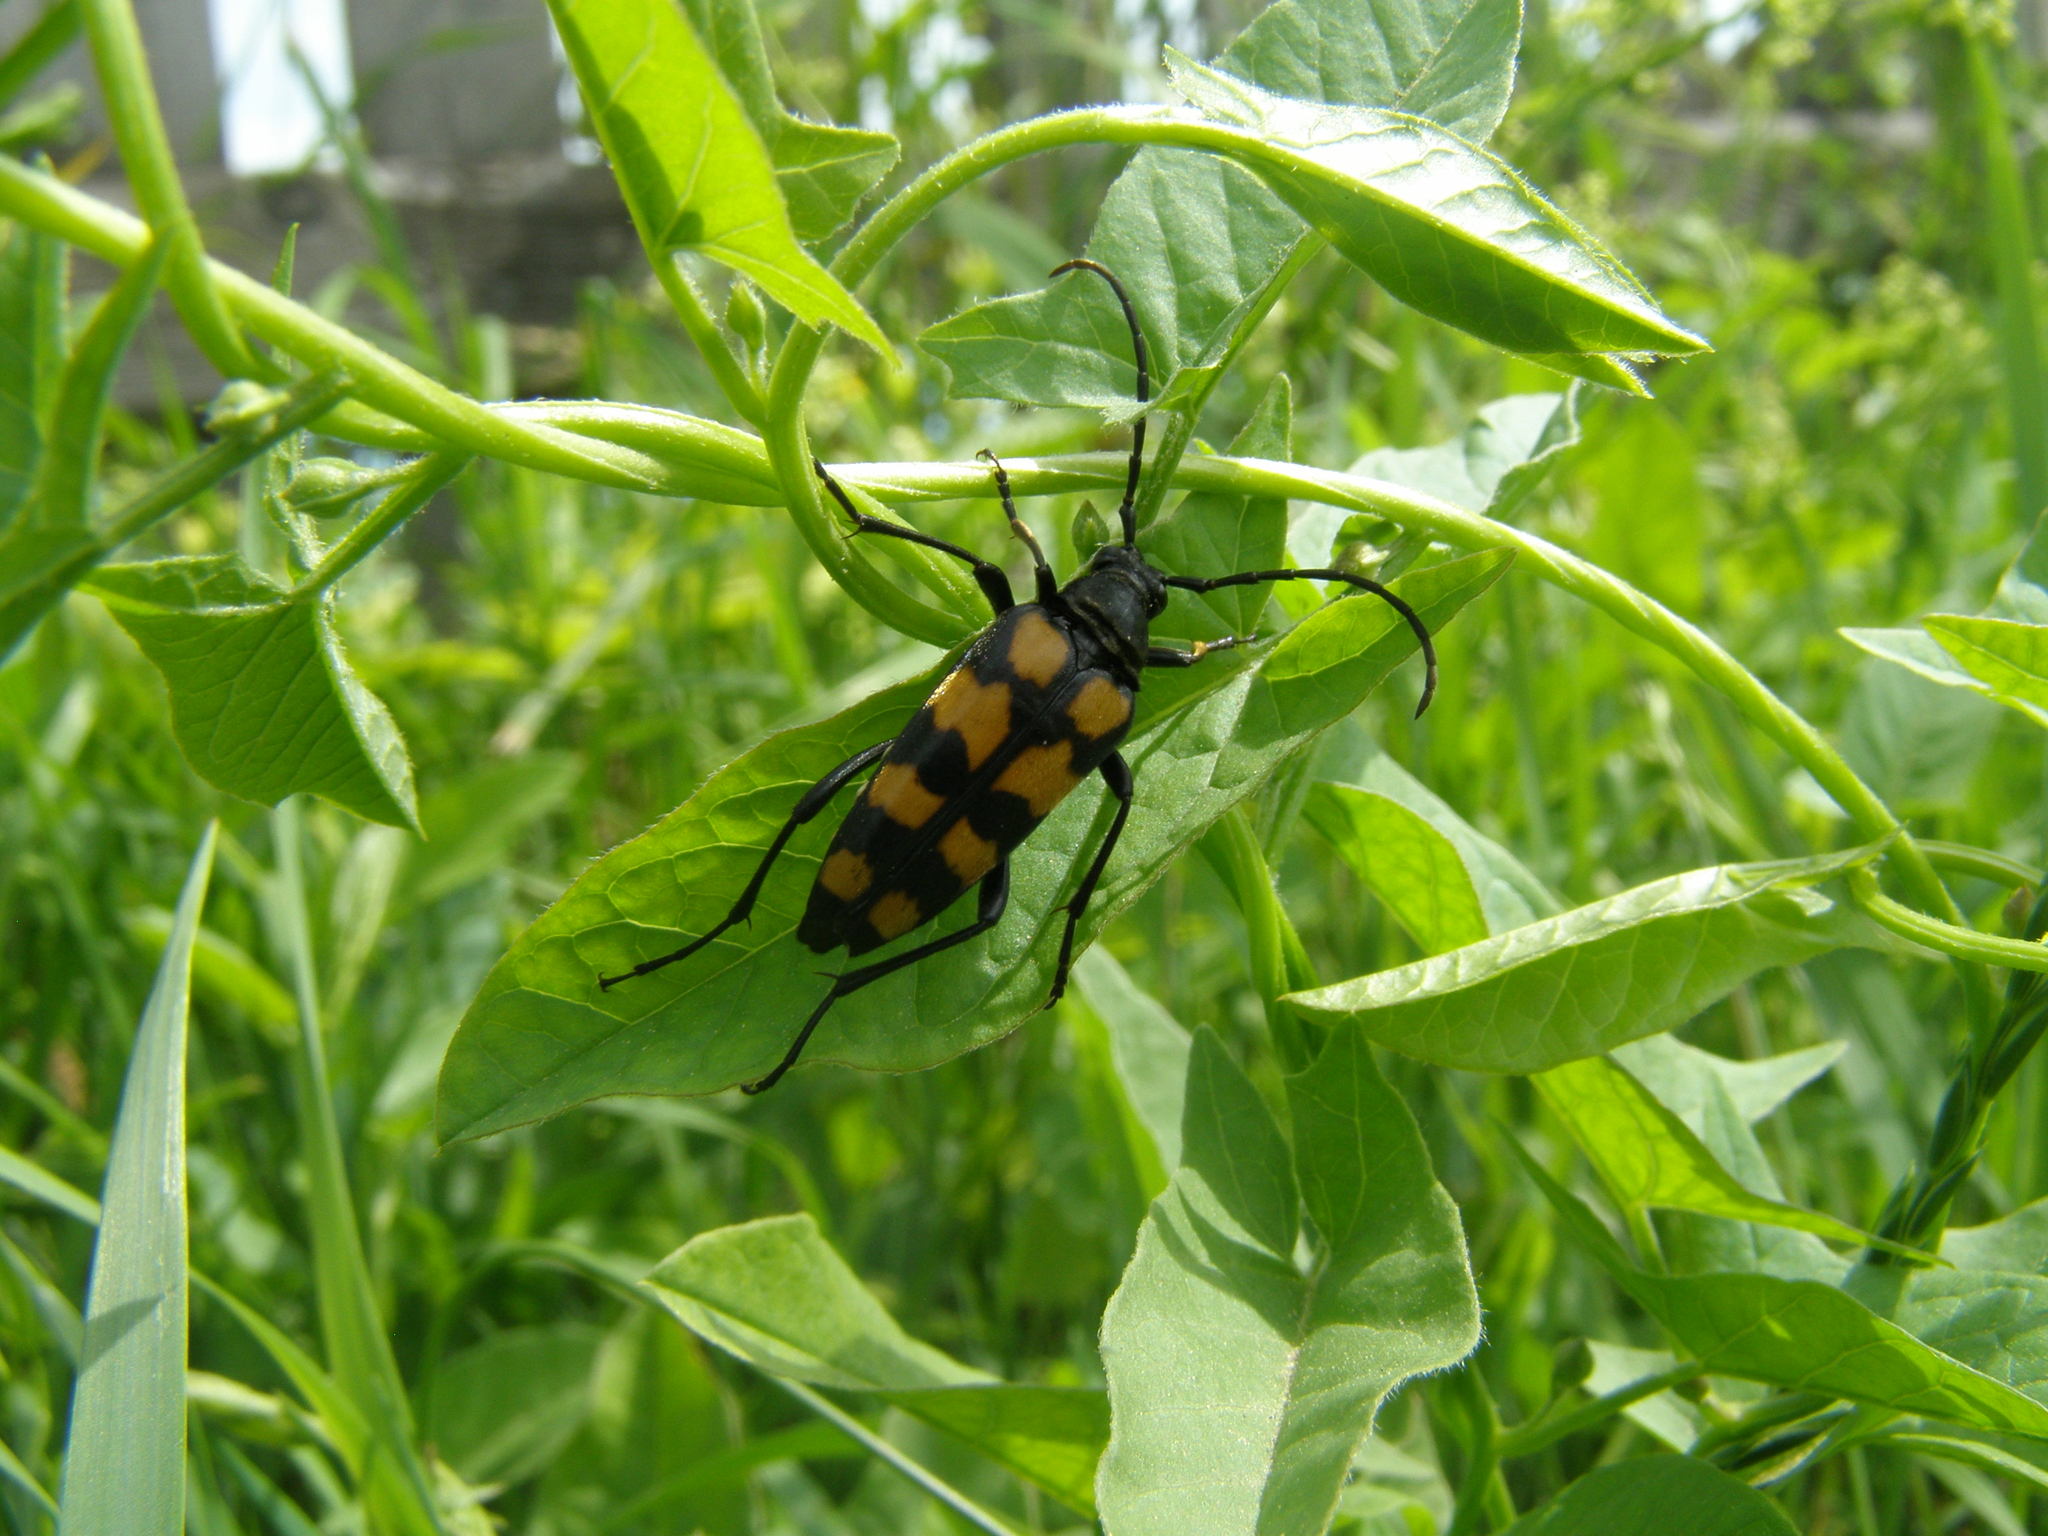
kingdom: Animalia
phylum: Arthropoda
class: Insecta
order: Coleoptera
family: Cerambycidae
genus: Leptura
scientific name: Leptura quadrifasciata
